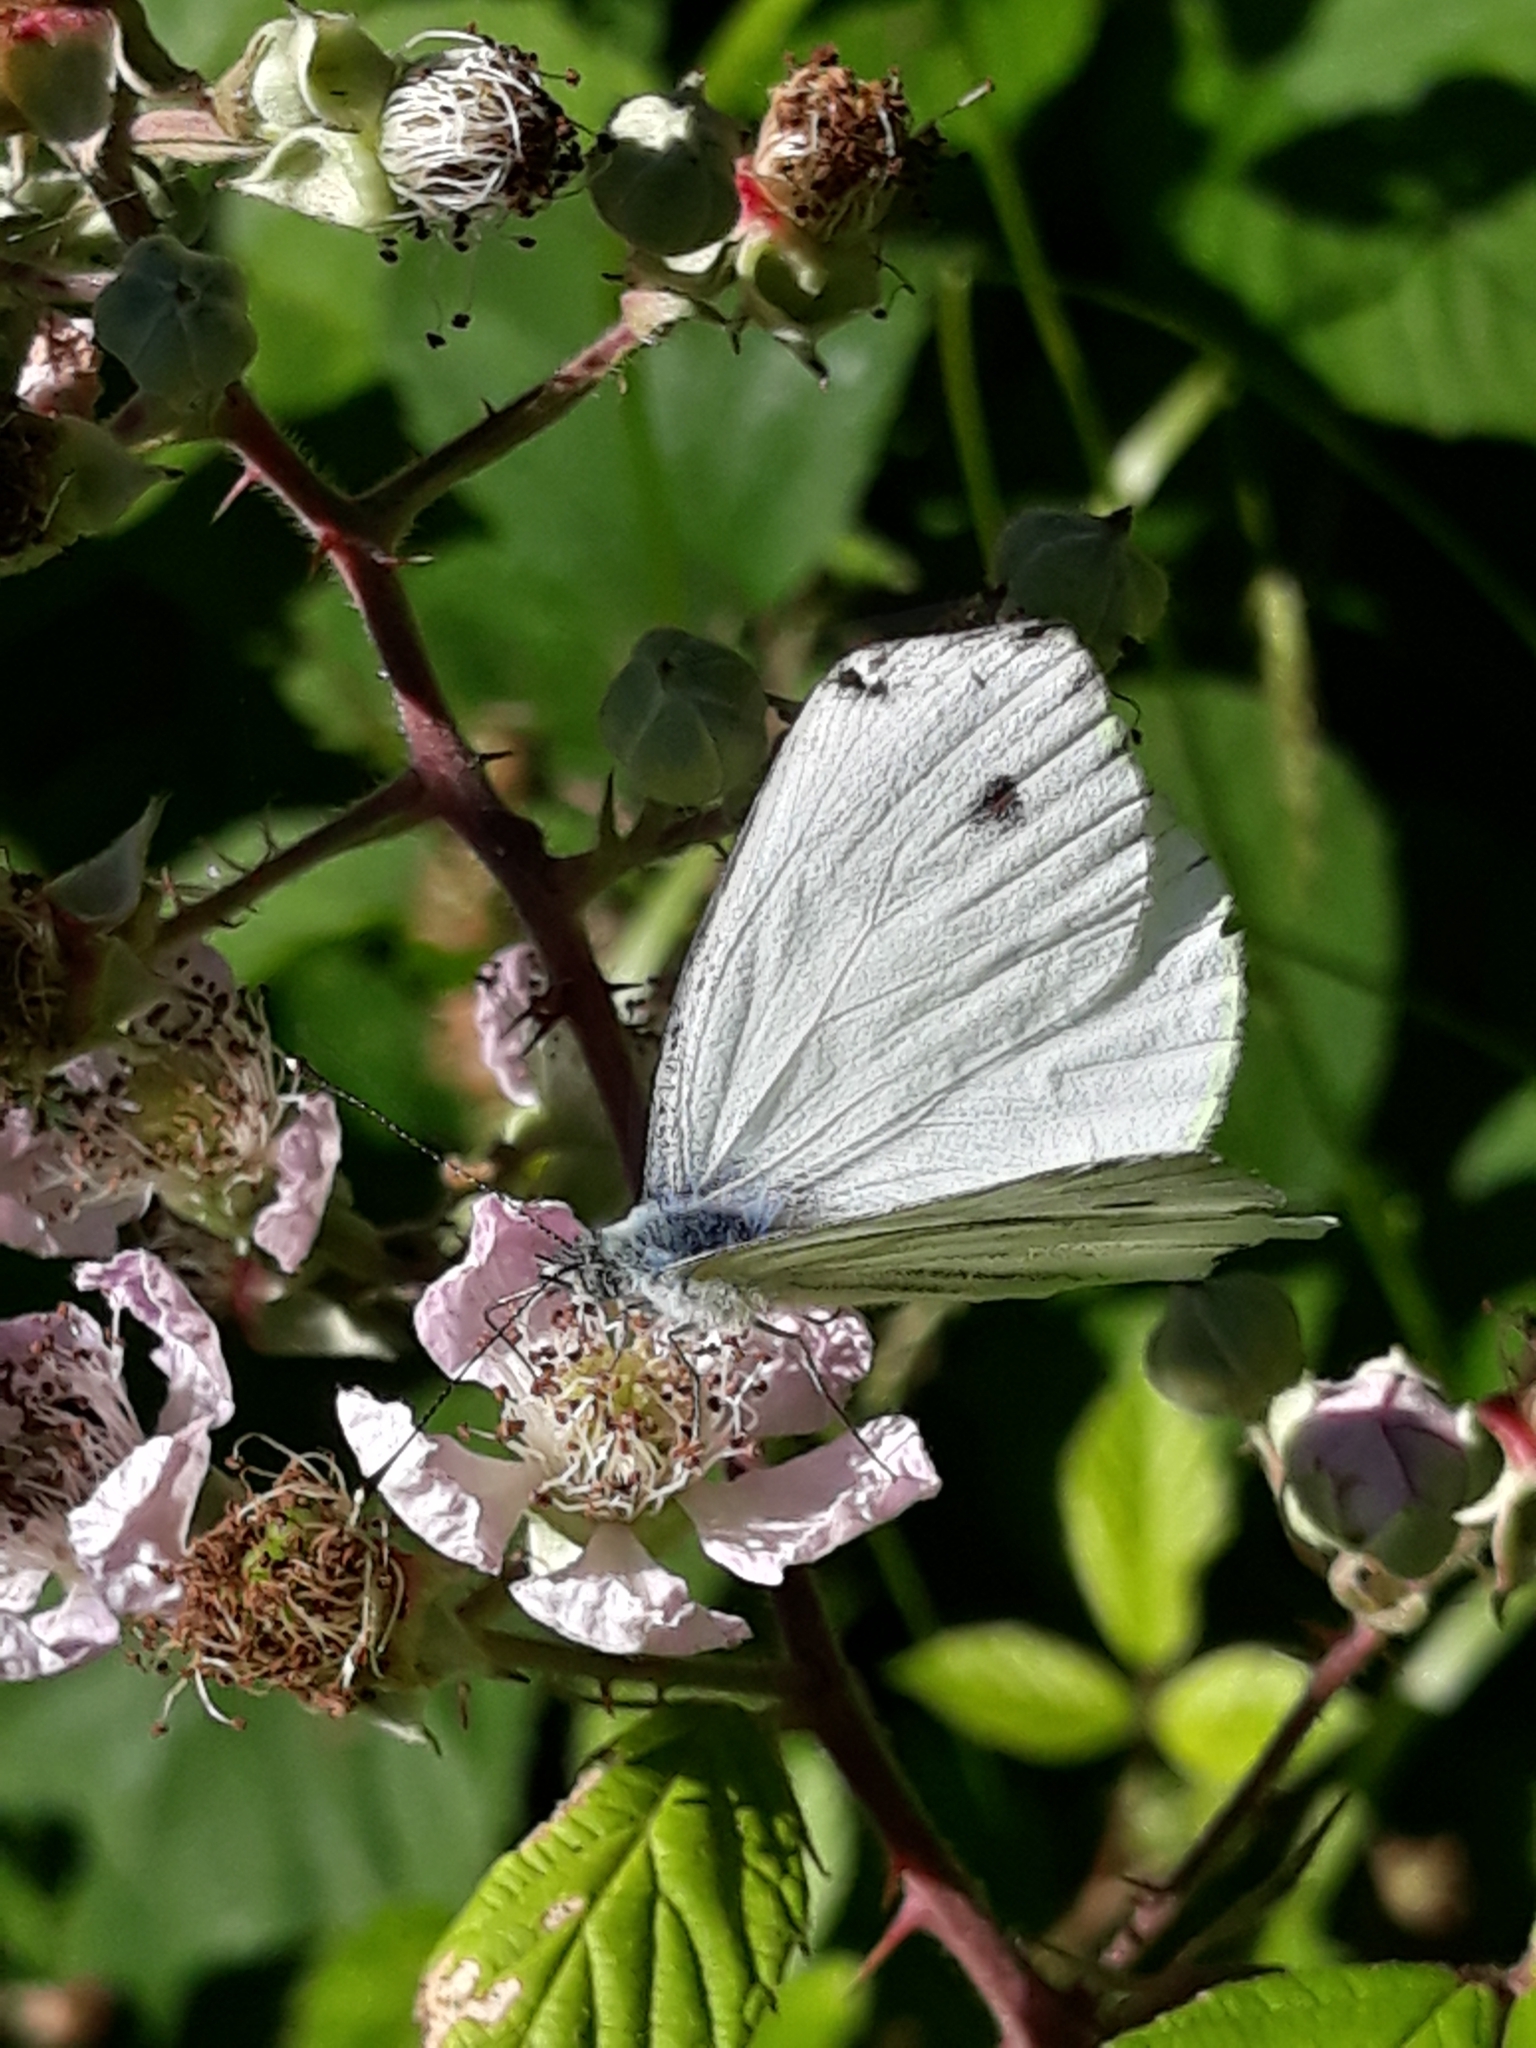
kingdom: Animalia
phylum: Arthropoda
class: Insecta
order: Lepidoptera
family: Pieridae
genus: Pieris
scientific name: Pieris napi
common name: Green-veined white
